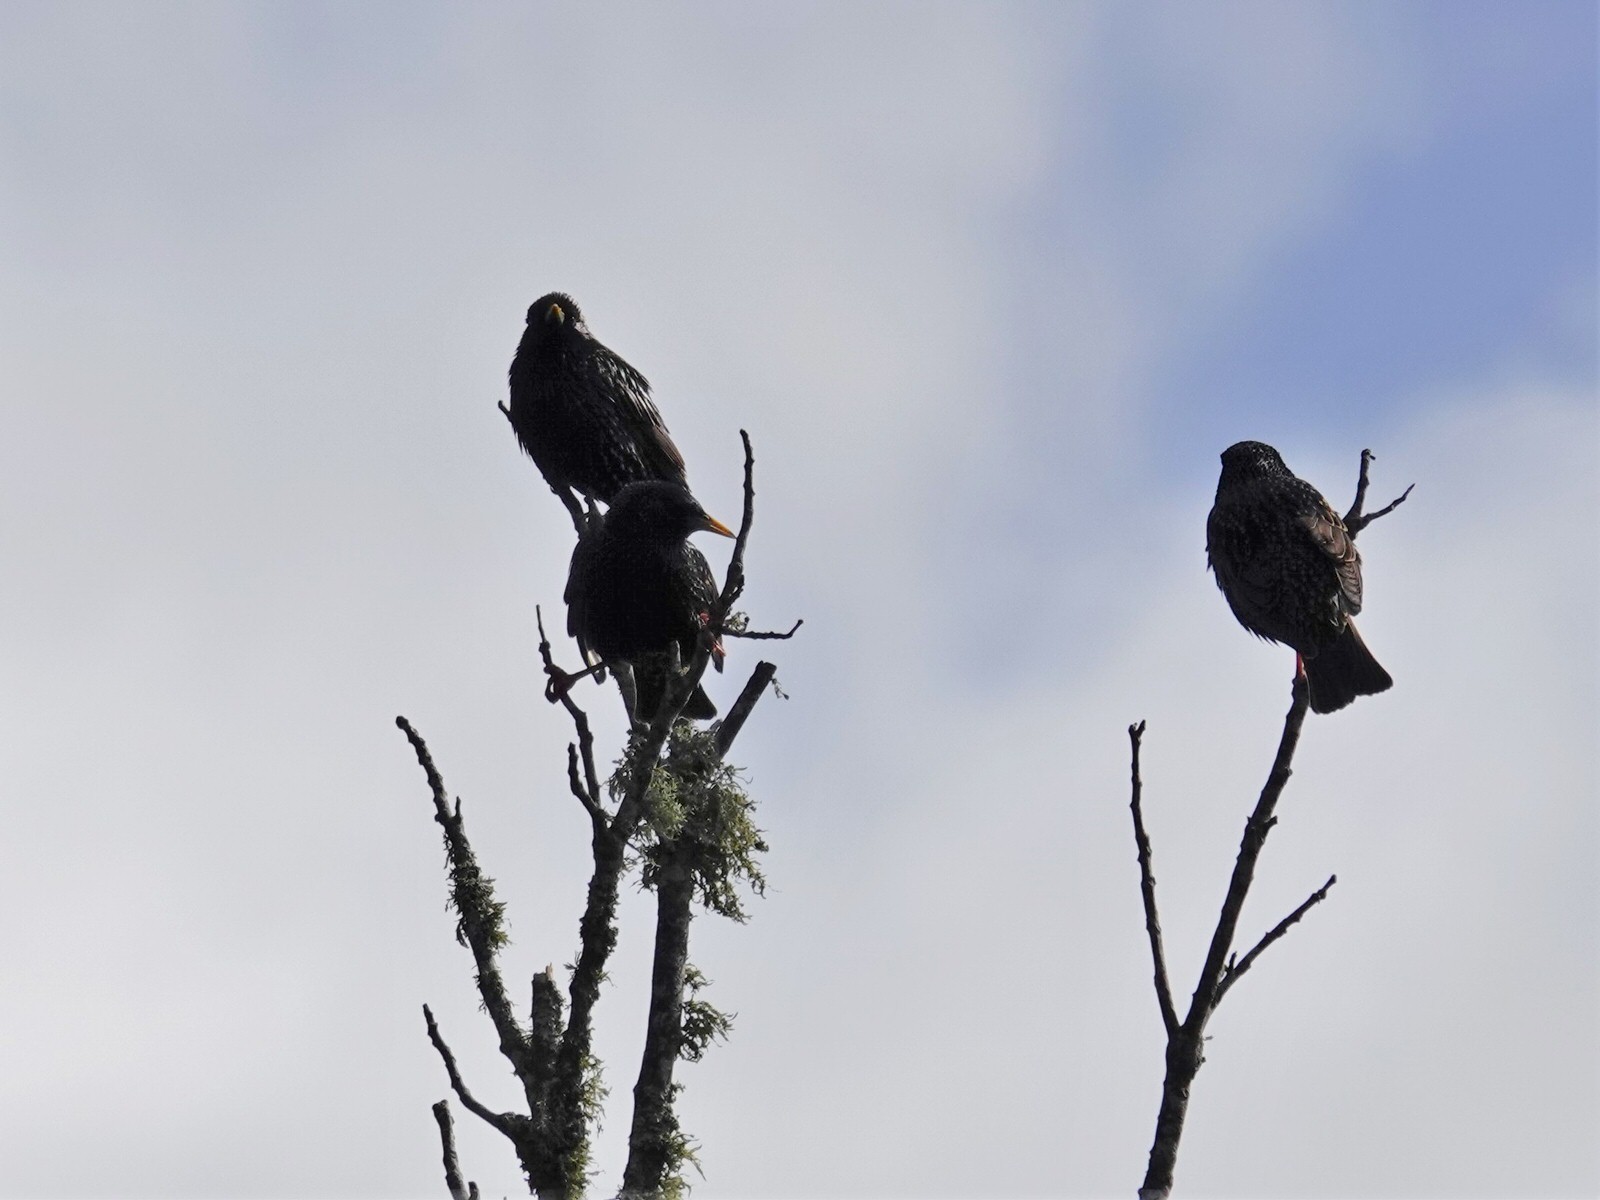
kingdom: Animalia
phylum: Chordata
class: Aves
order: Passeriformes
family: Sturnidae
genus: Sturnus
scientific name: Sturnus vulgaris
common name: Common starling
